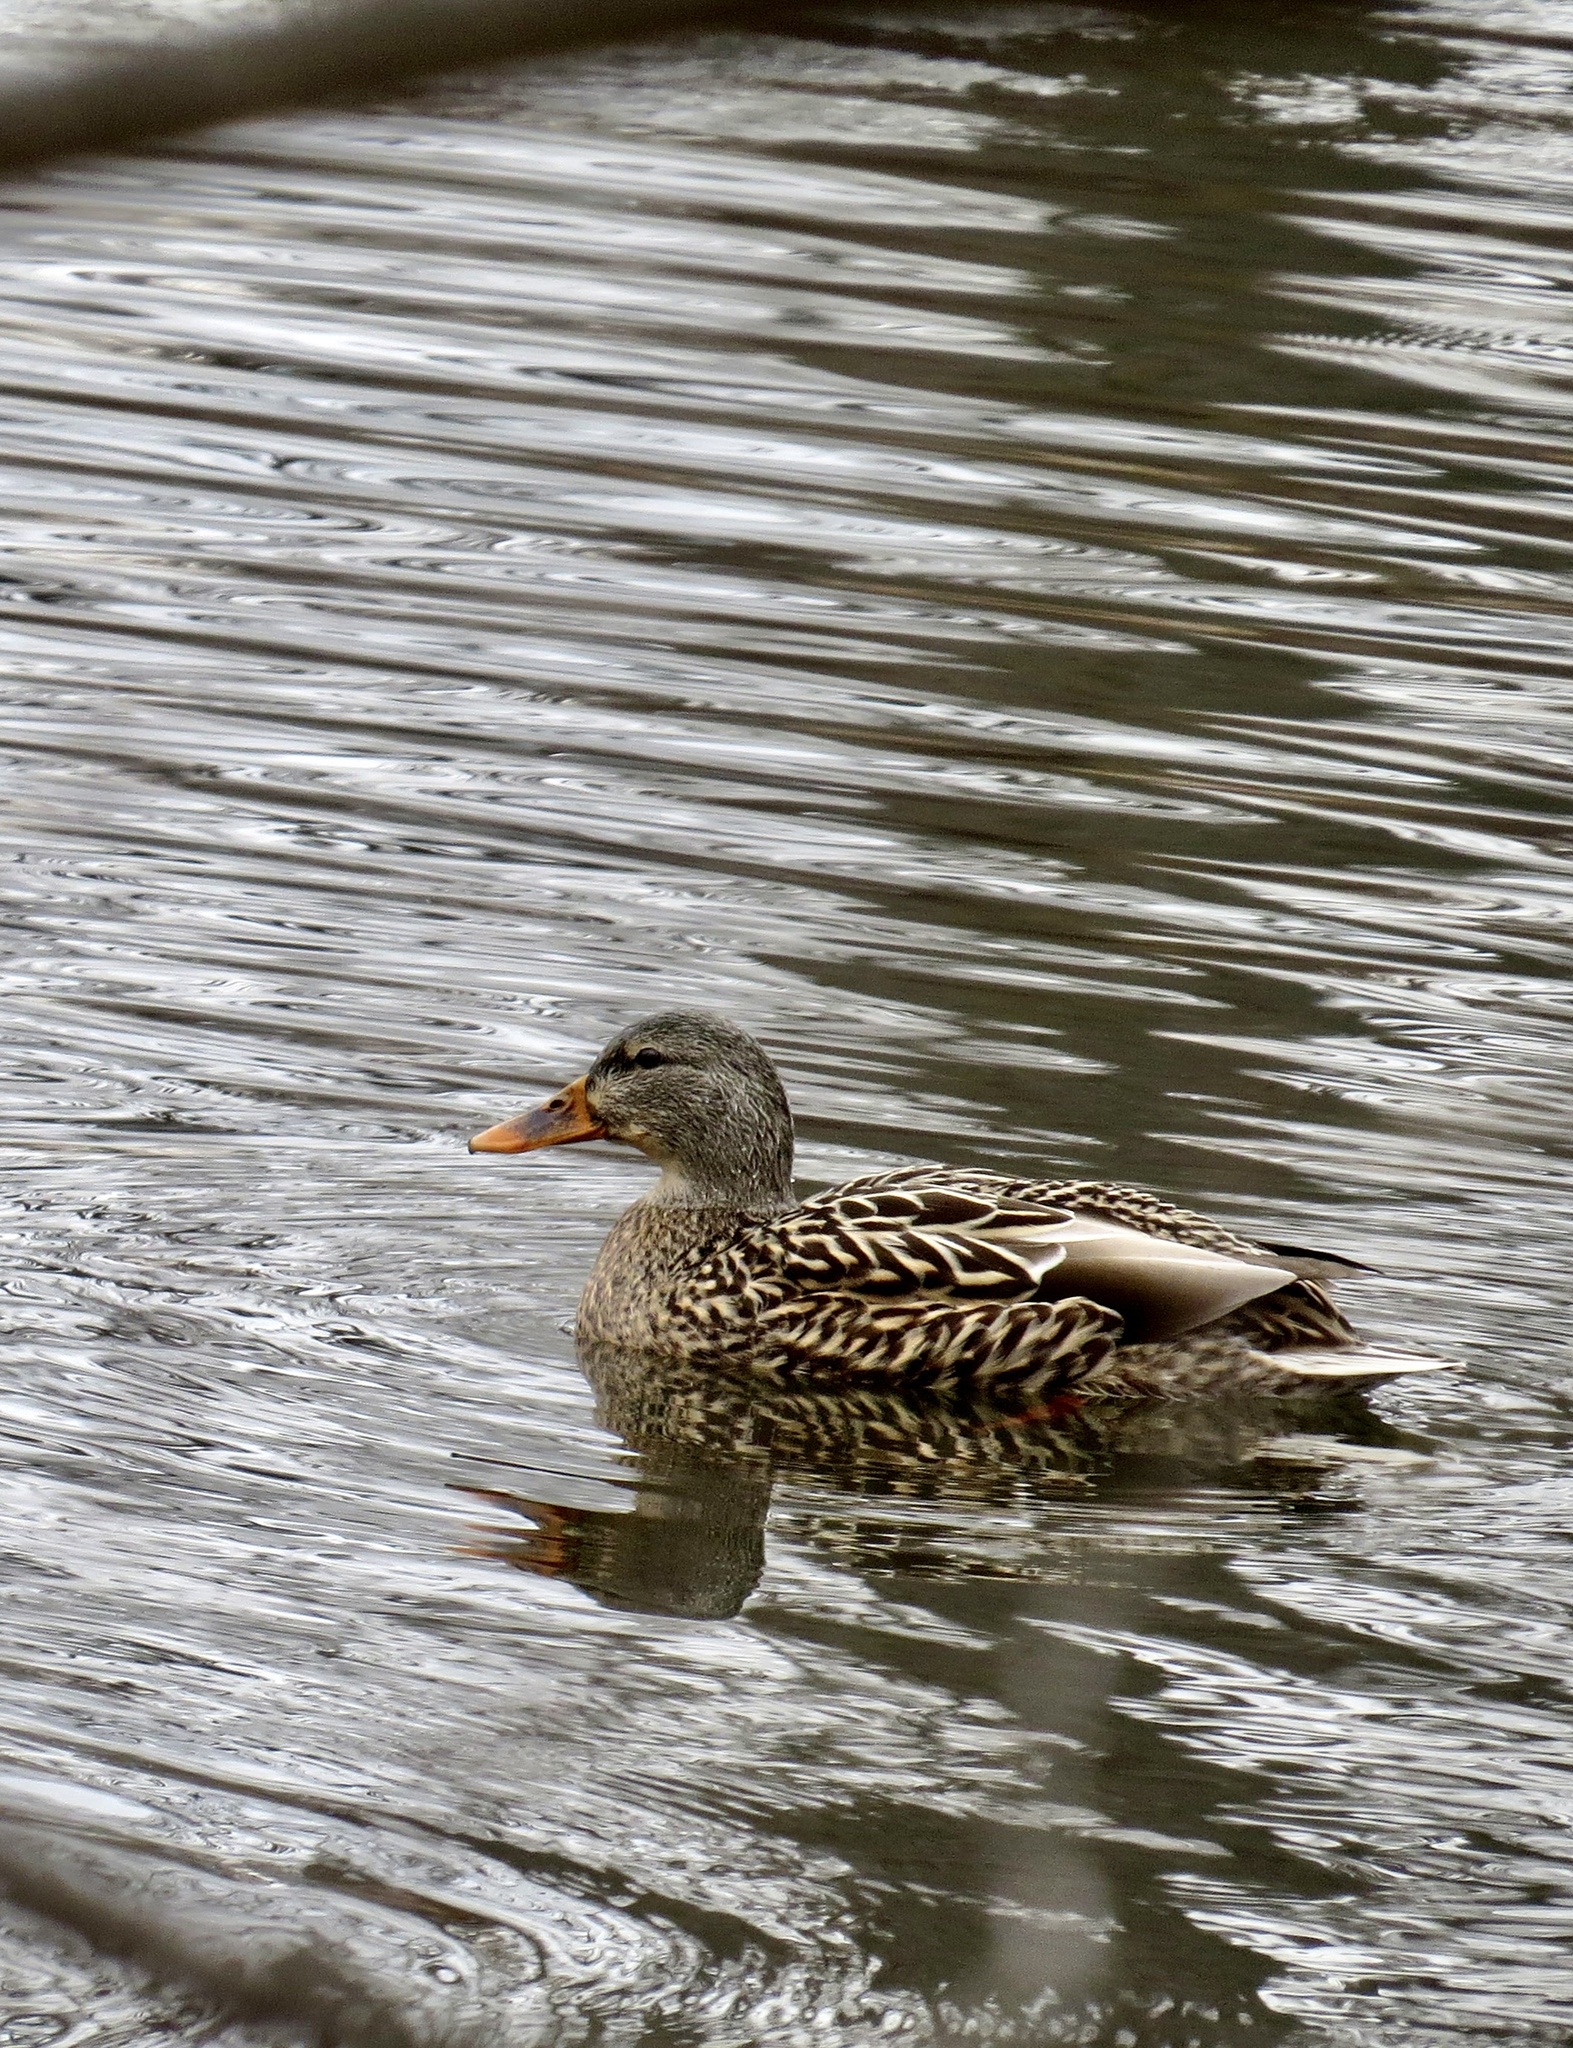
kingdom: Animalia
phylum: Chordata
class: Aves
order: Anseriformes
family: Anatidae
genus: Anas
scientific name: Anas platyrhynchos
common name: Mallard
